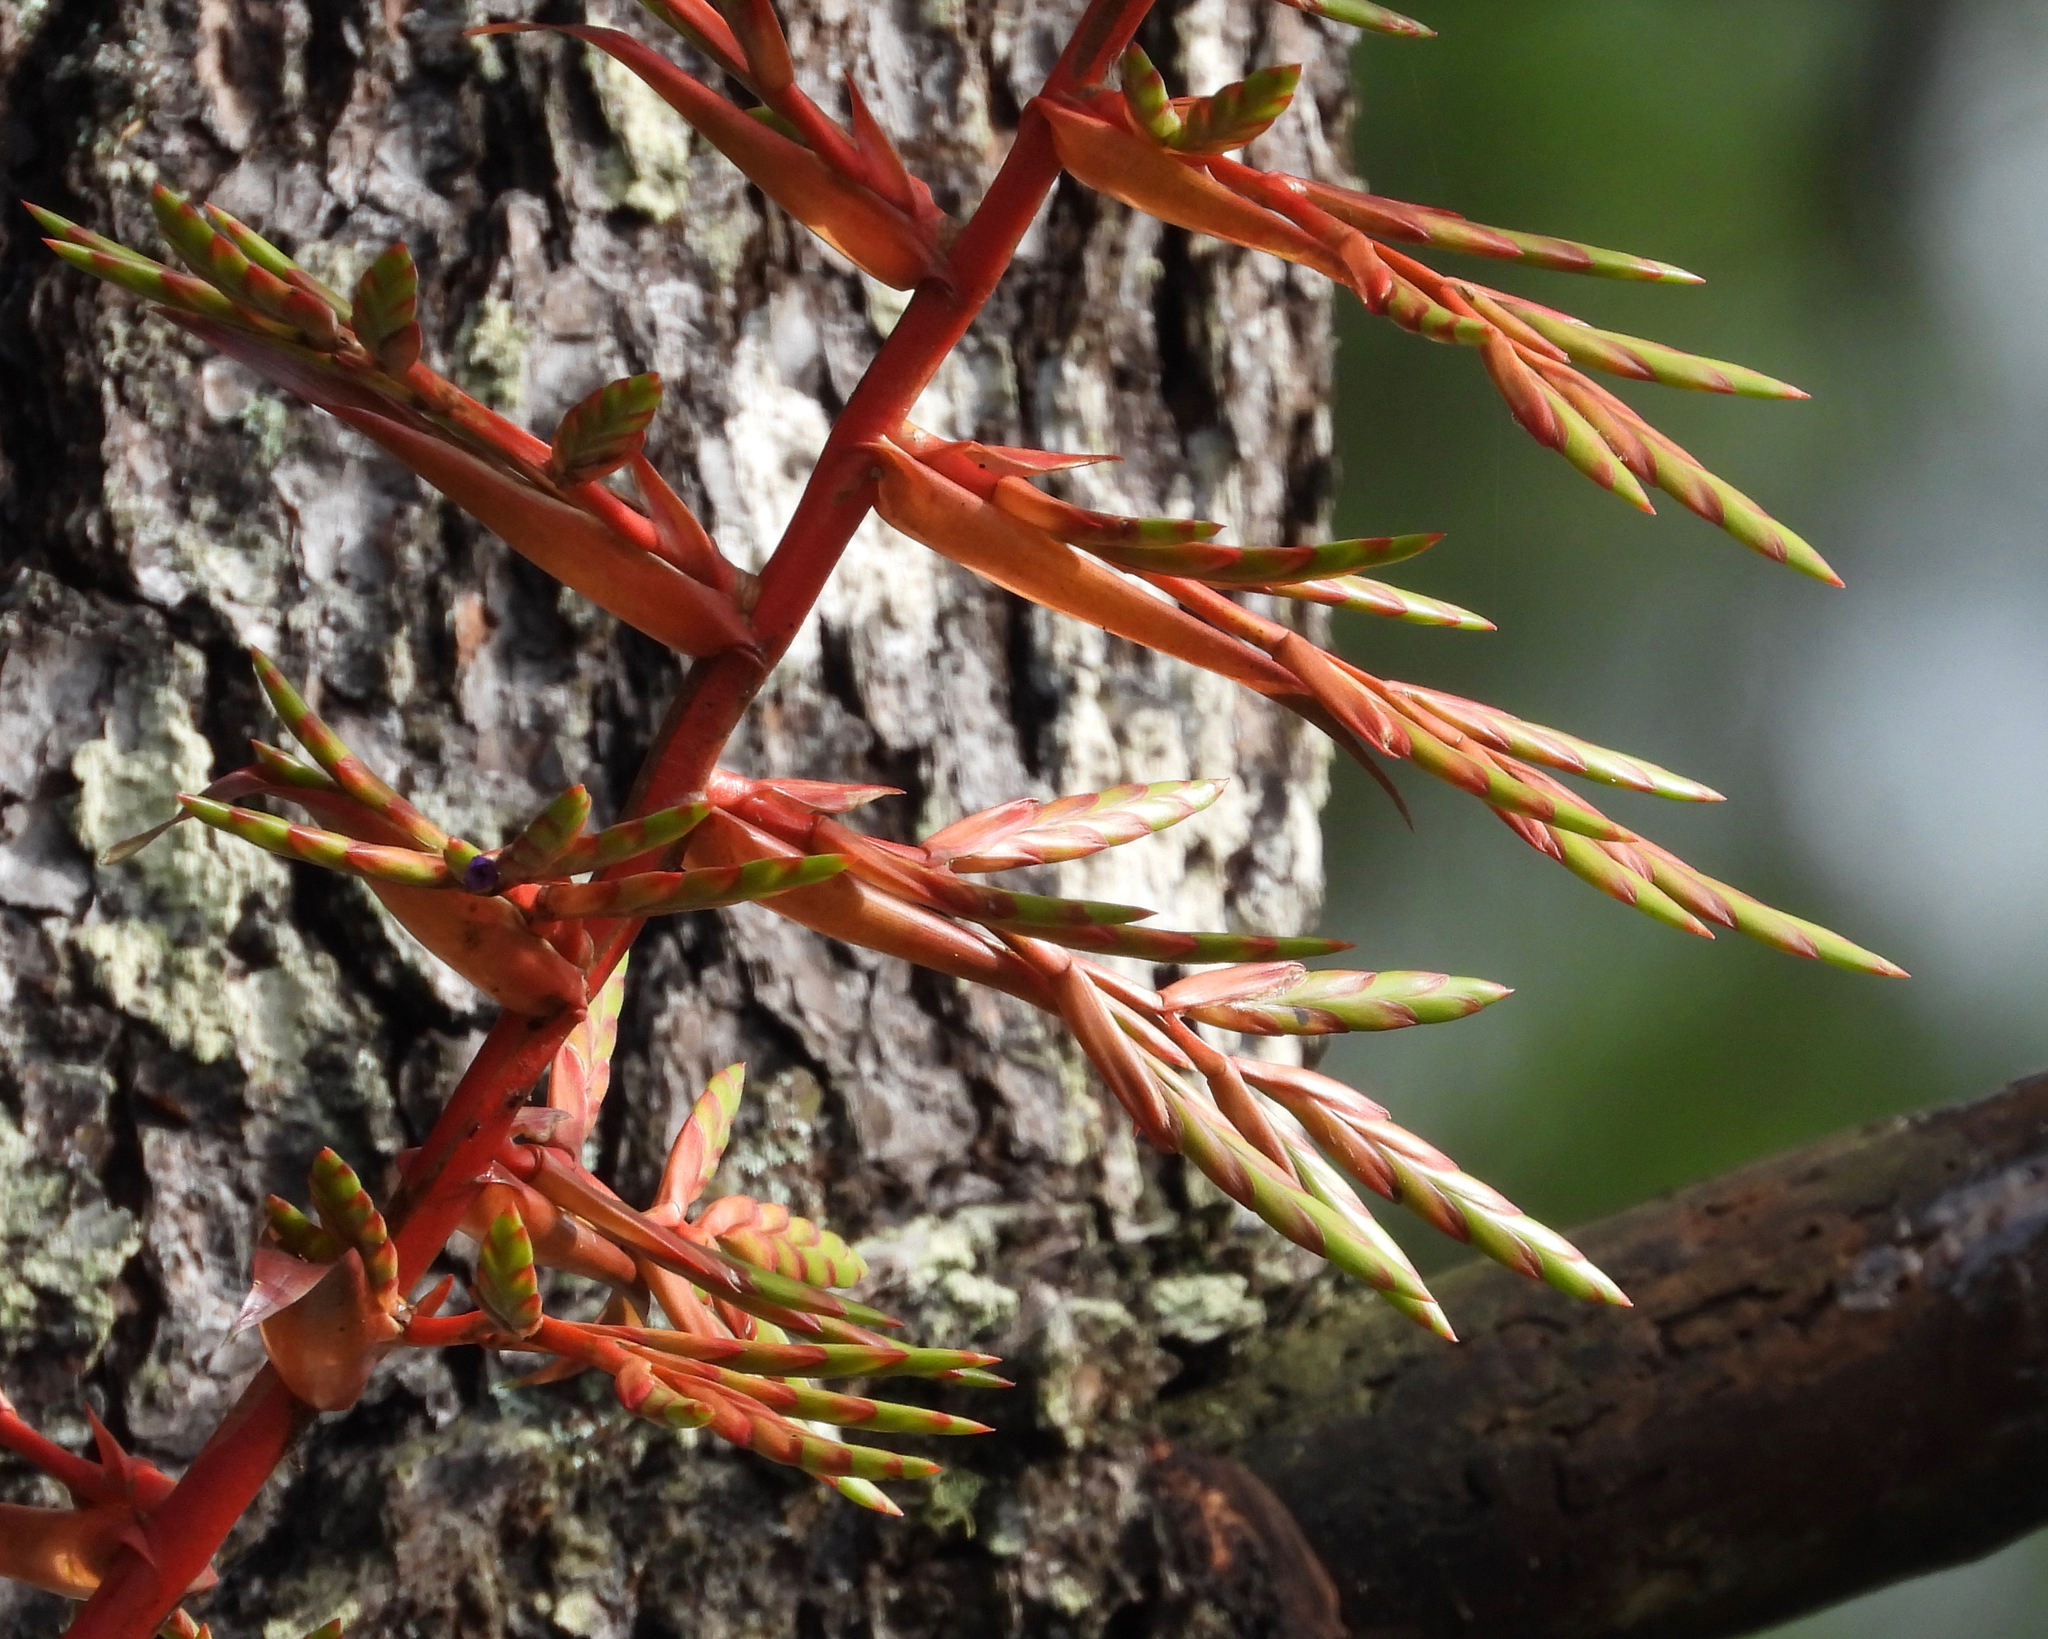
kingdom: Plantae
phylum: Tracheophyta
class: Liliopsida
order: Poales
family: Bromeliaceae
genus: Tillandsia
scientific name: Tillandsia guatemalensis
